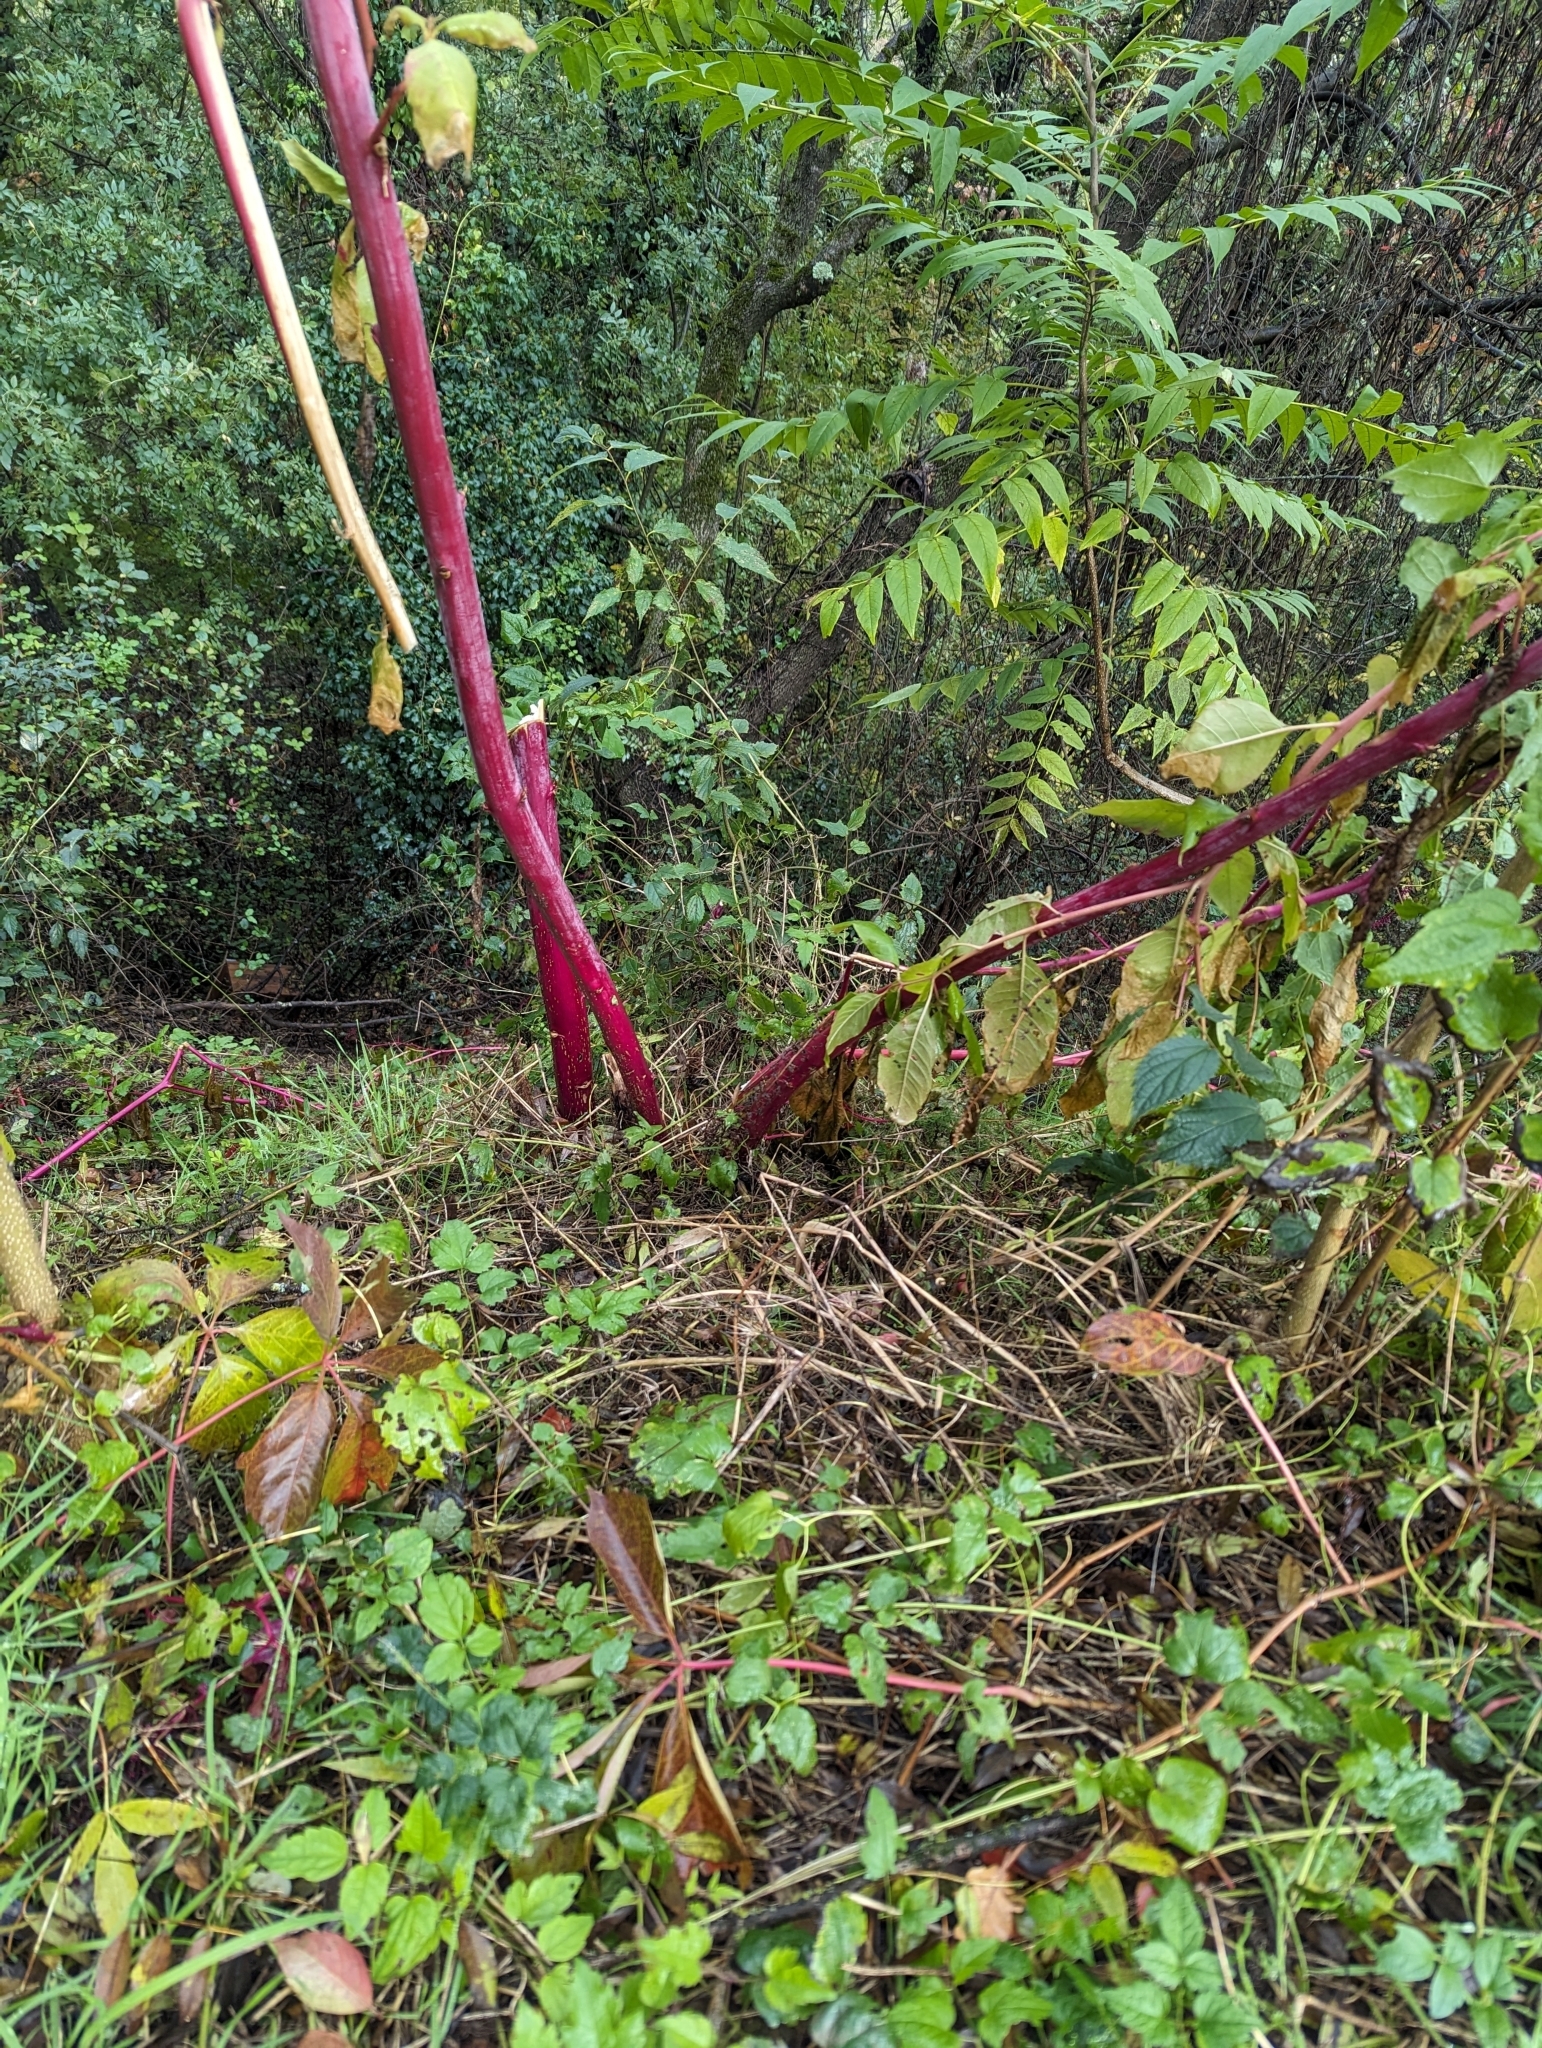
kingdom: Plantae
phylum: Tracheophyta
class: Magnoliopsida
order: Caryophyllales
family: Phytolaccaceae
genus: Phytolacca
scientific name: Phytolacca americana
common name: American pokeweed
